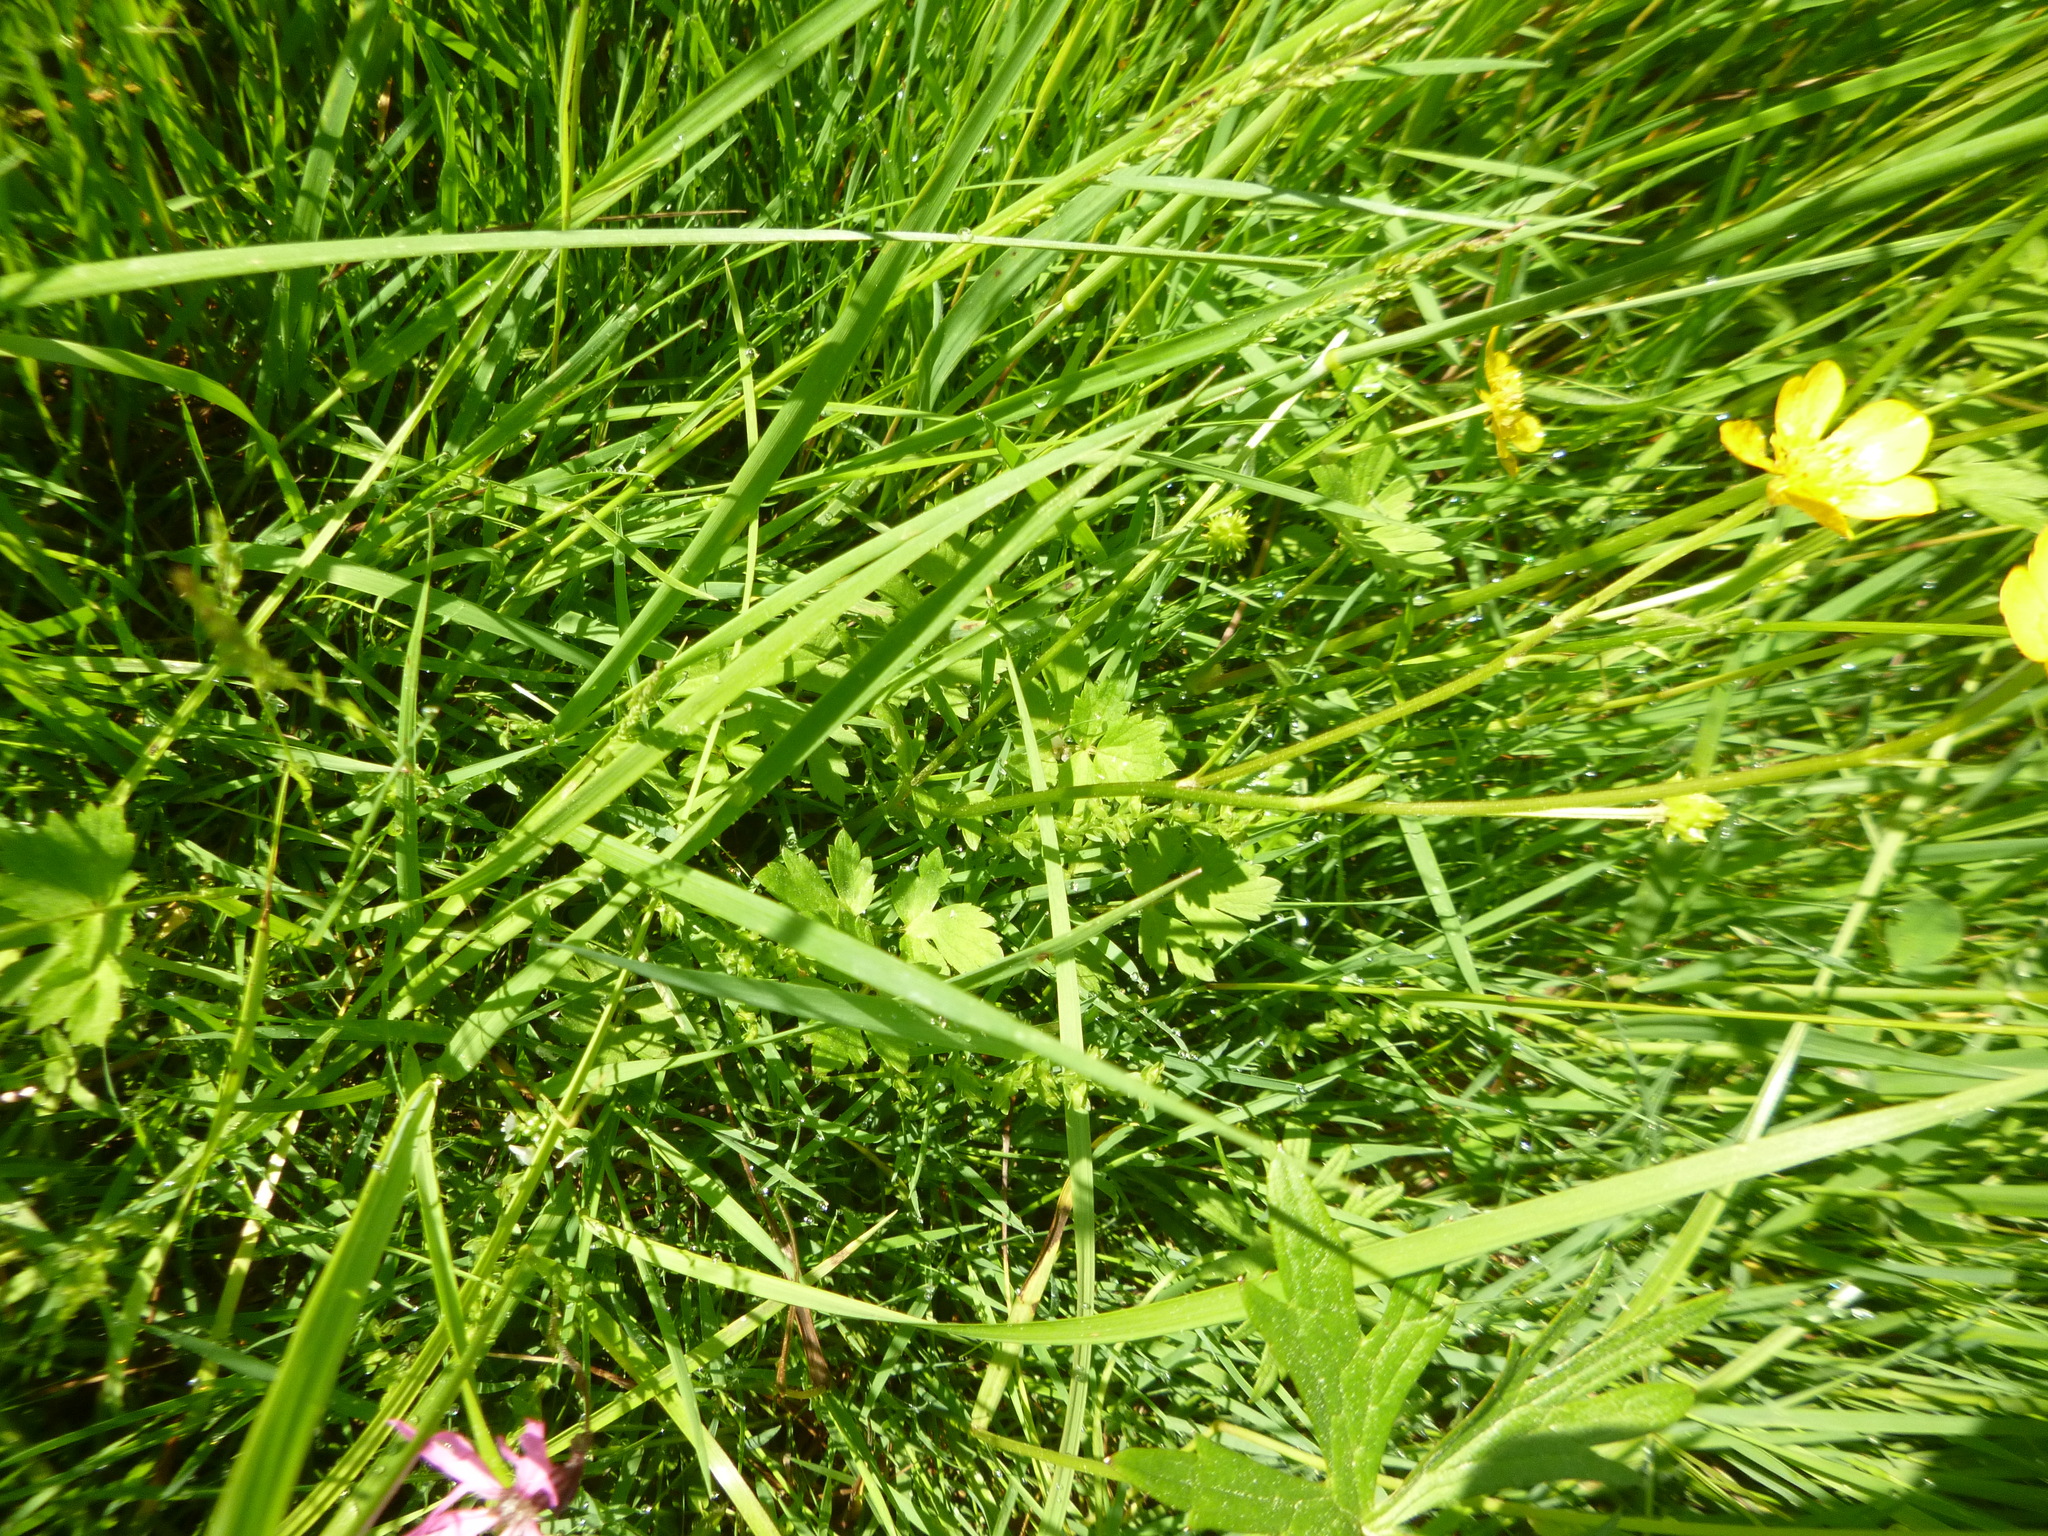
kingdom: Plantae
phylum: Tracheophyta
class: Magnoliopsida
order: Ranunculales
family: Ranunculaceae
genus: Ranunculus
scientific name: Ranunculus repens
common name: Creeping buttercup
